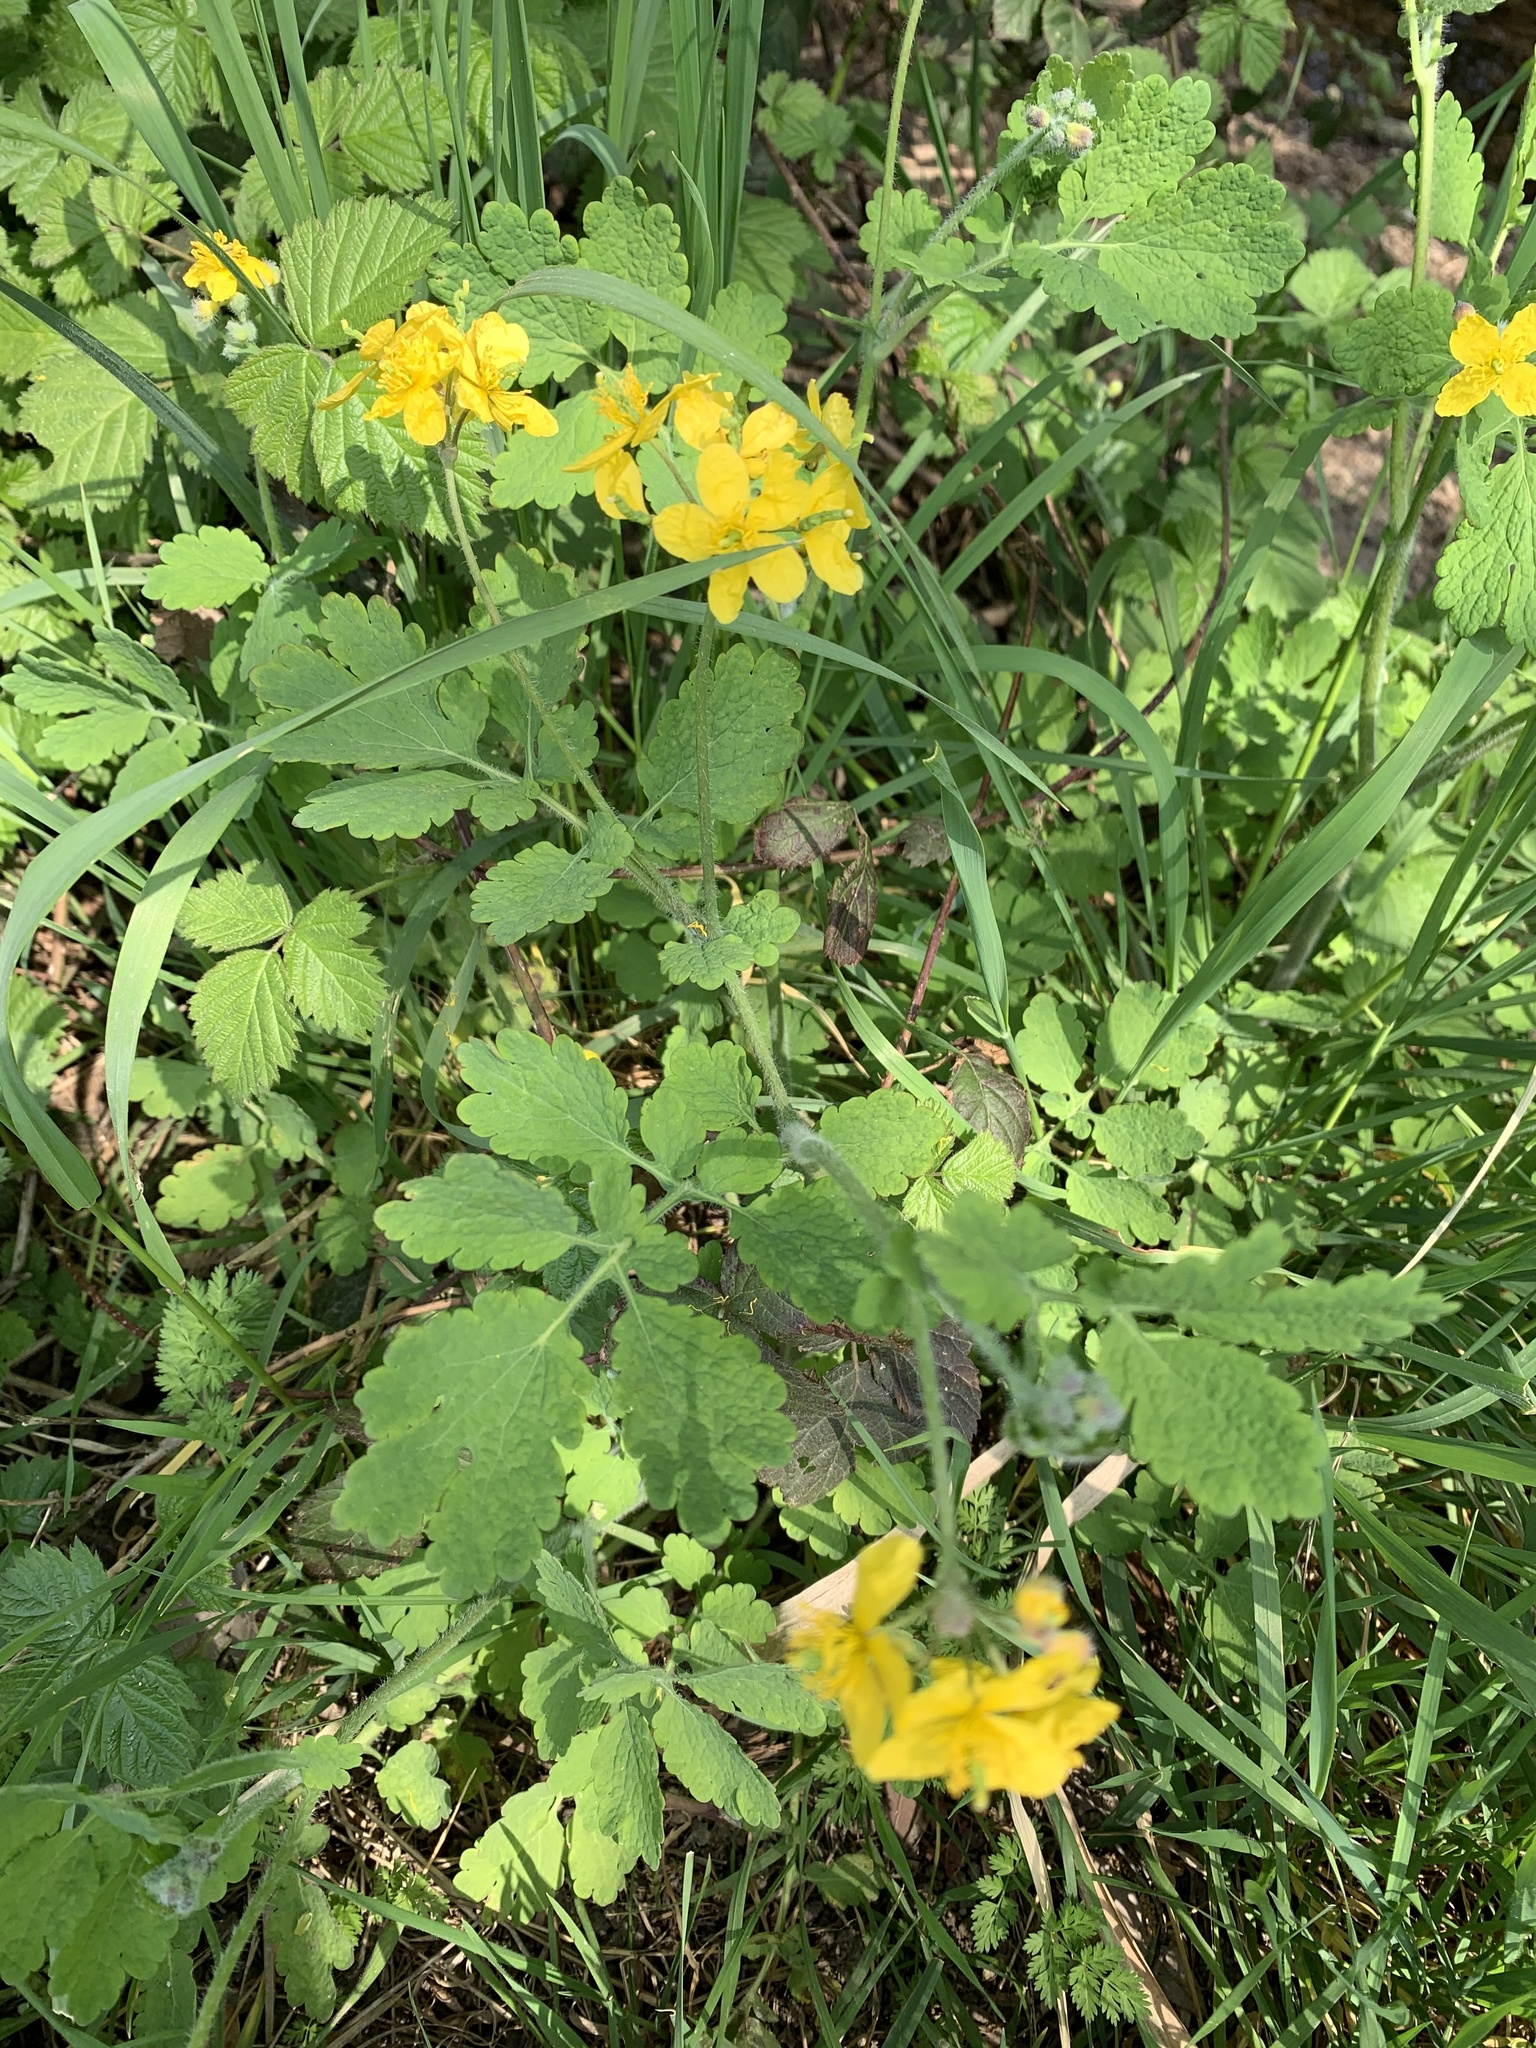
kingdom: Plantae
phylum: Tracheophyta
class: Magnoliopsida
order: Ranunculales
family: Papaveraceae
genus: Chelidonium
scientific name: Chelidonium majus
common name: Greater celandine
